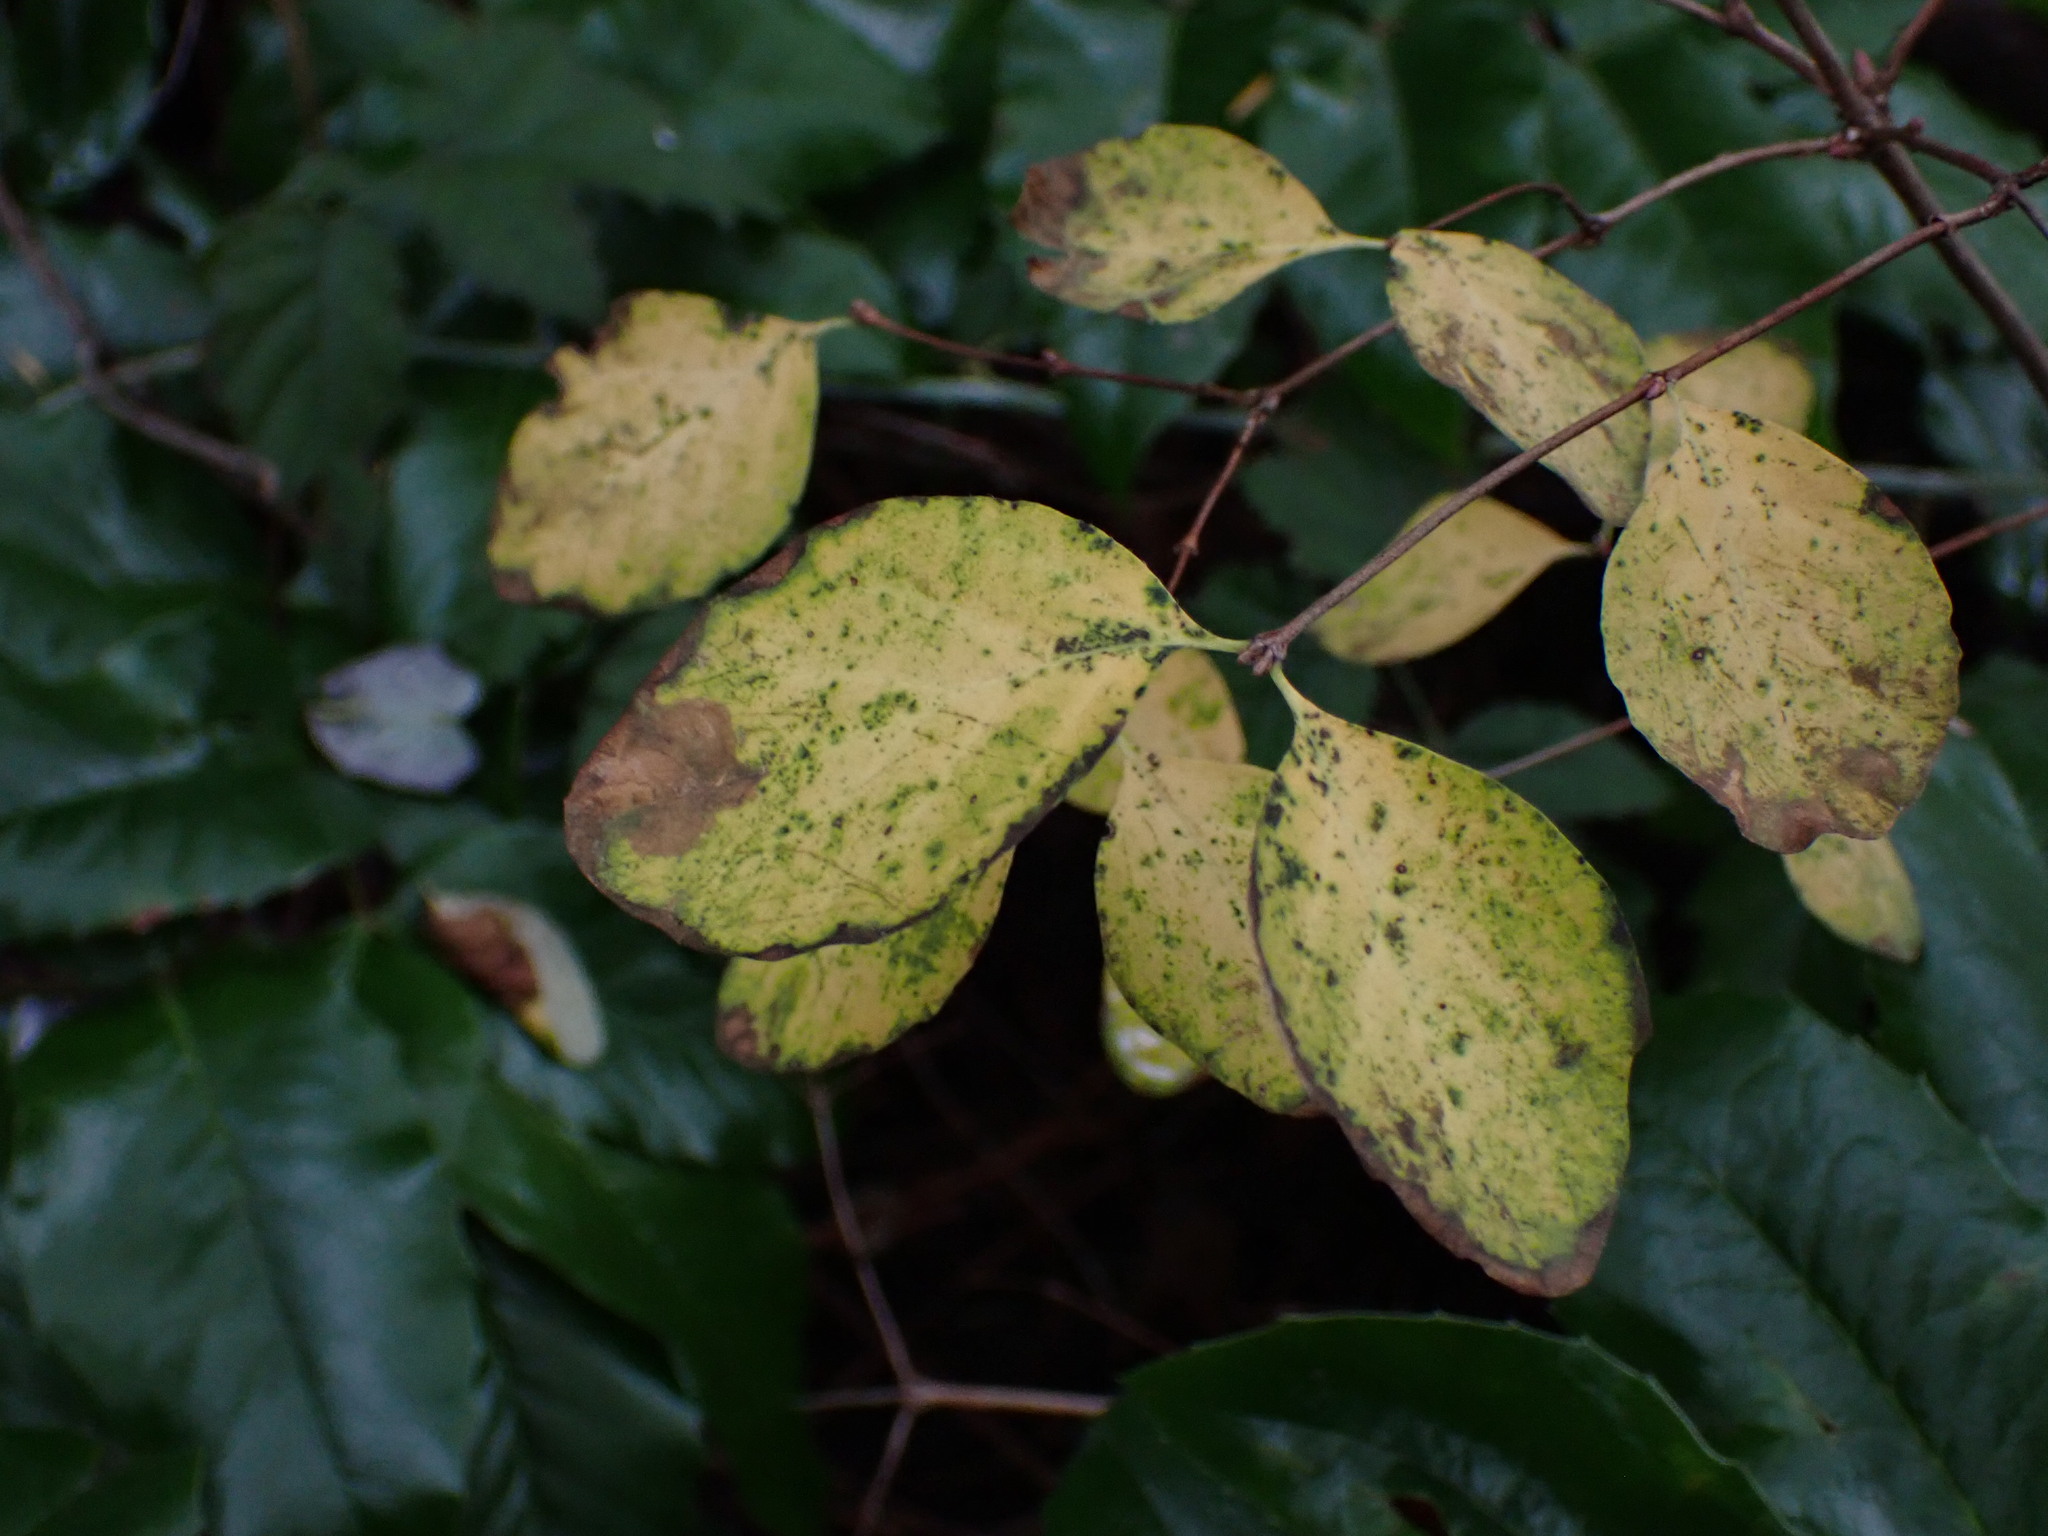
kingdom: Plantae
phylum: Tracheophyta
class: Magnoliopsida
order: Dipsacales
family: Caprifoliaceae
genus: Symphoricarpos
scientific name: Symphoricarpos albus
